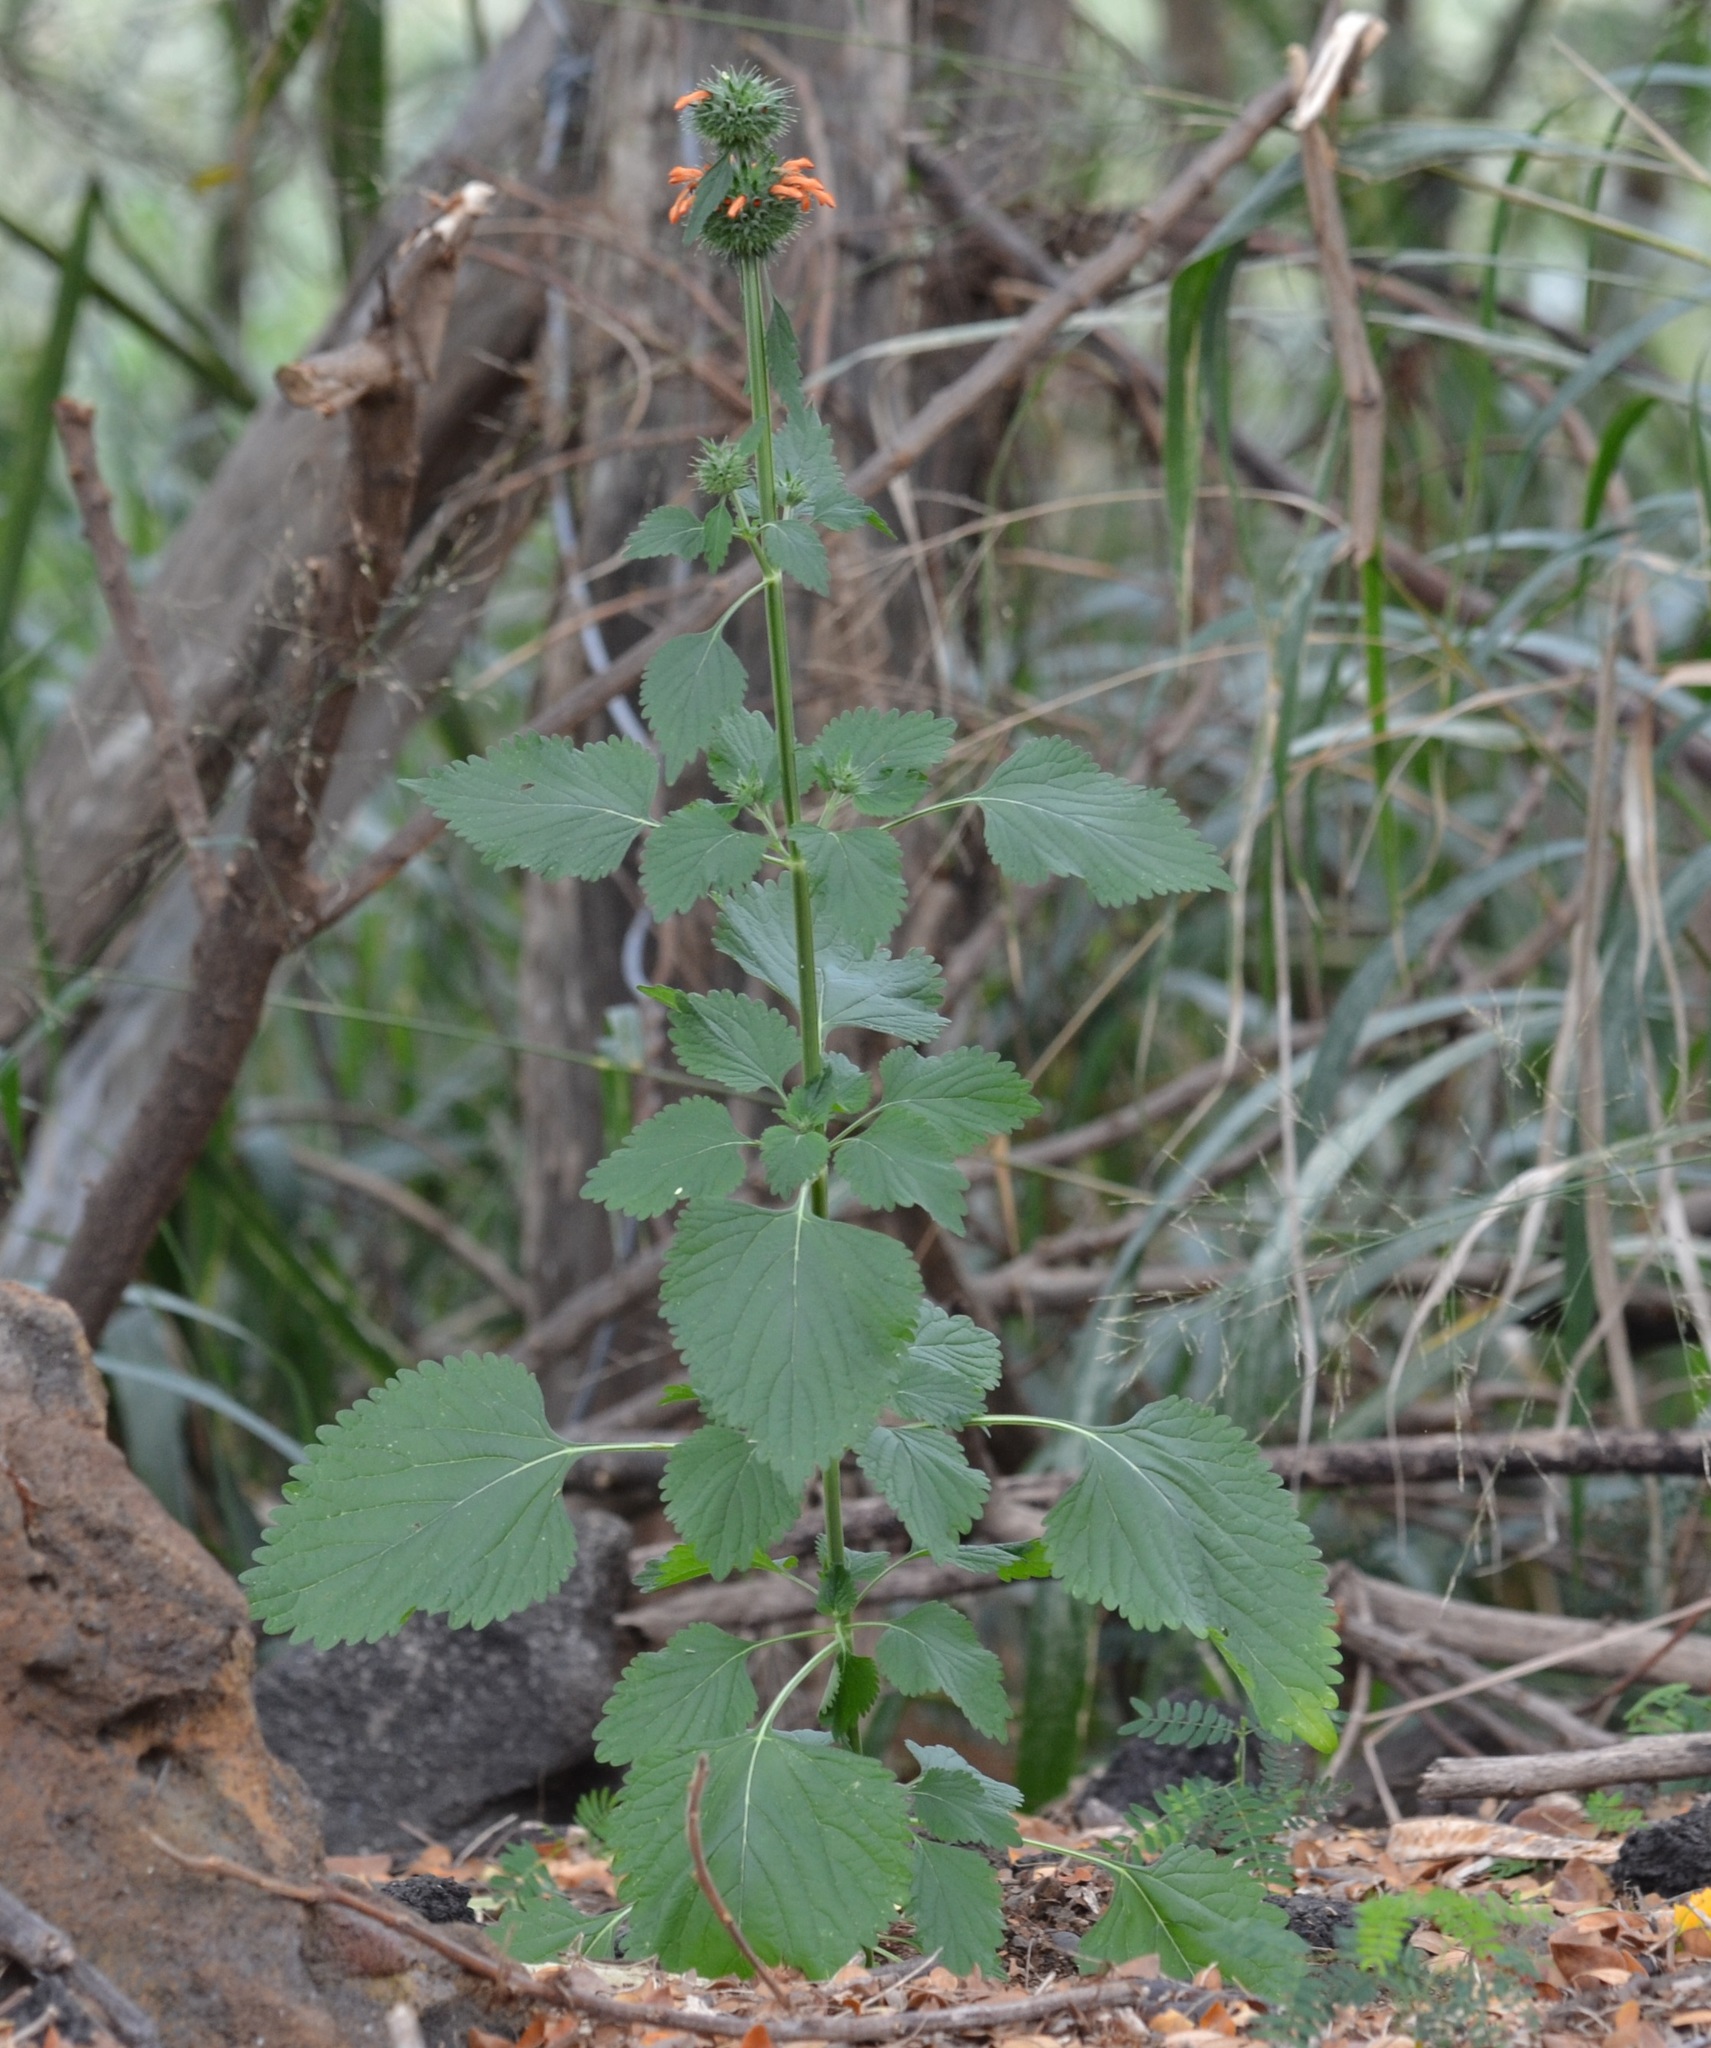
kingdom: Plantae
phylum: Tracheophyta
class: Magnoliopsida
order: Lamiales
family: Lamiaceae
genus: Leonotis
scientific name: Leonotis nepetifolia
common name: Christmas candlestick
